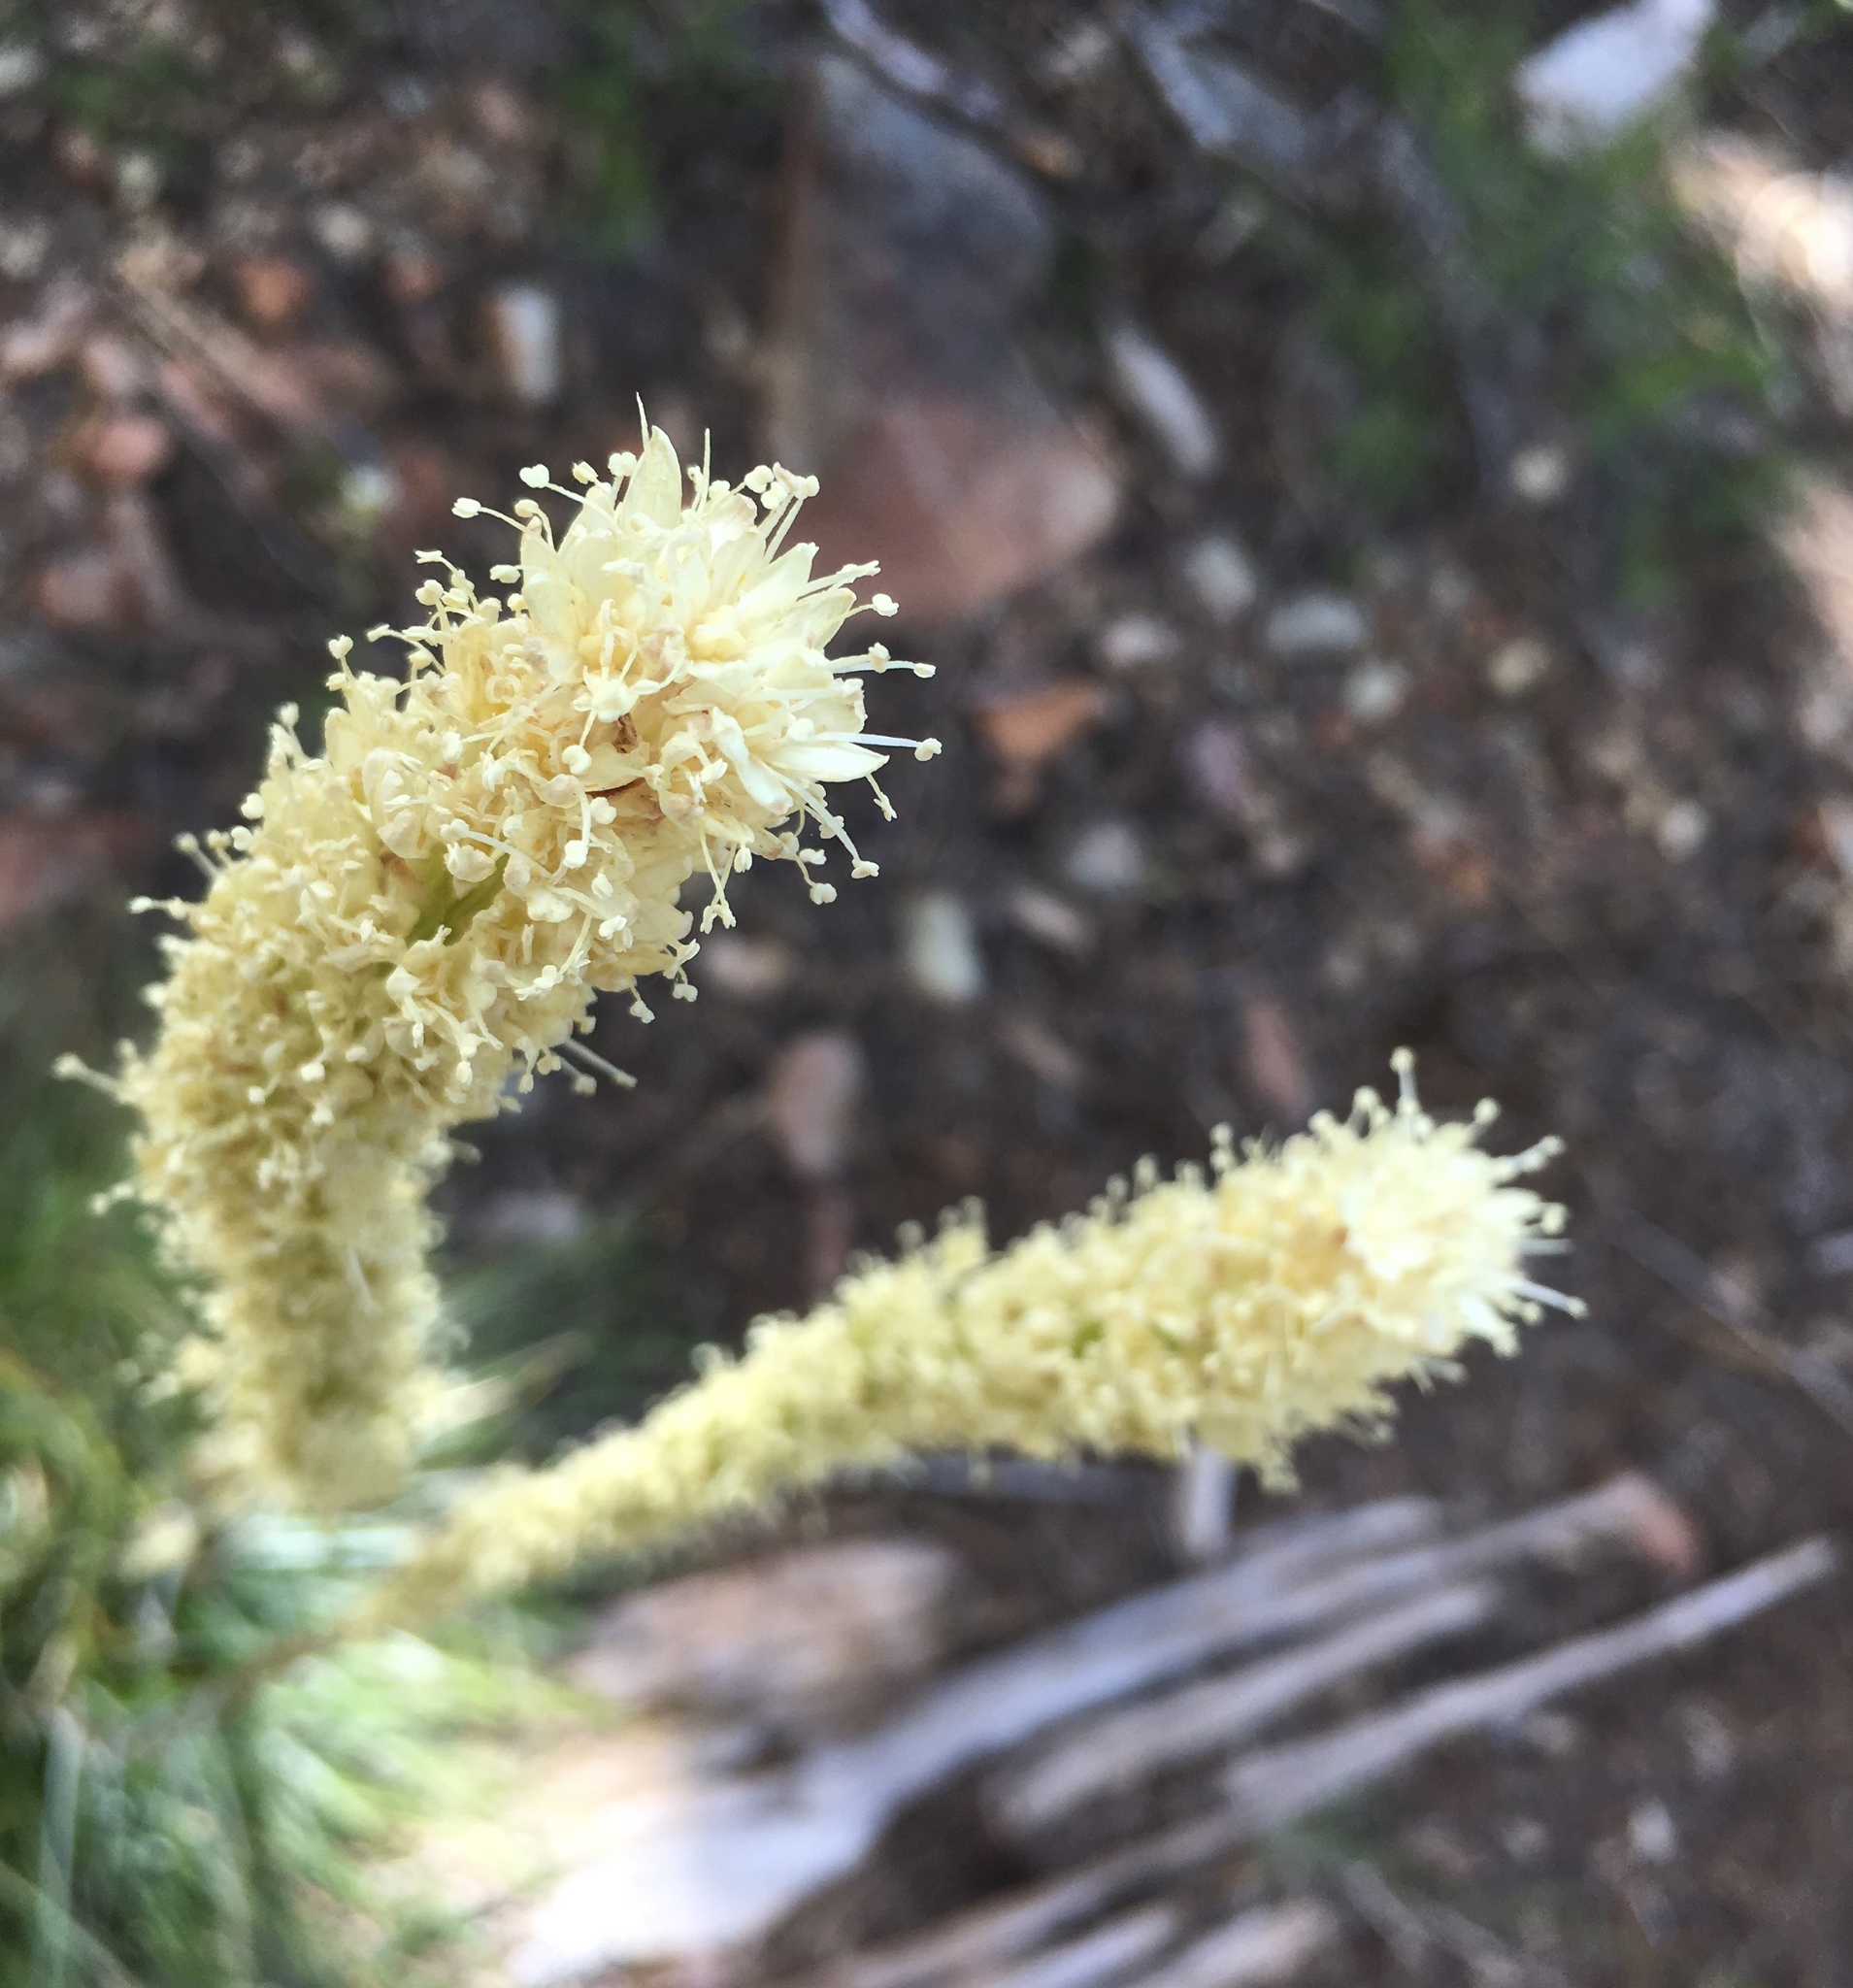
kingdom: Plantae
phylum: Tracheophyta
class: Liliopsida
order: Liliales
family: Melanthiaceae
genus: Xerophyllum
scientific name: Xerophyllum tenax
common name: Bear-grass
